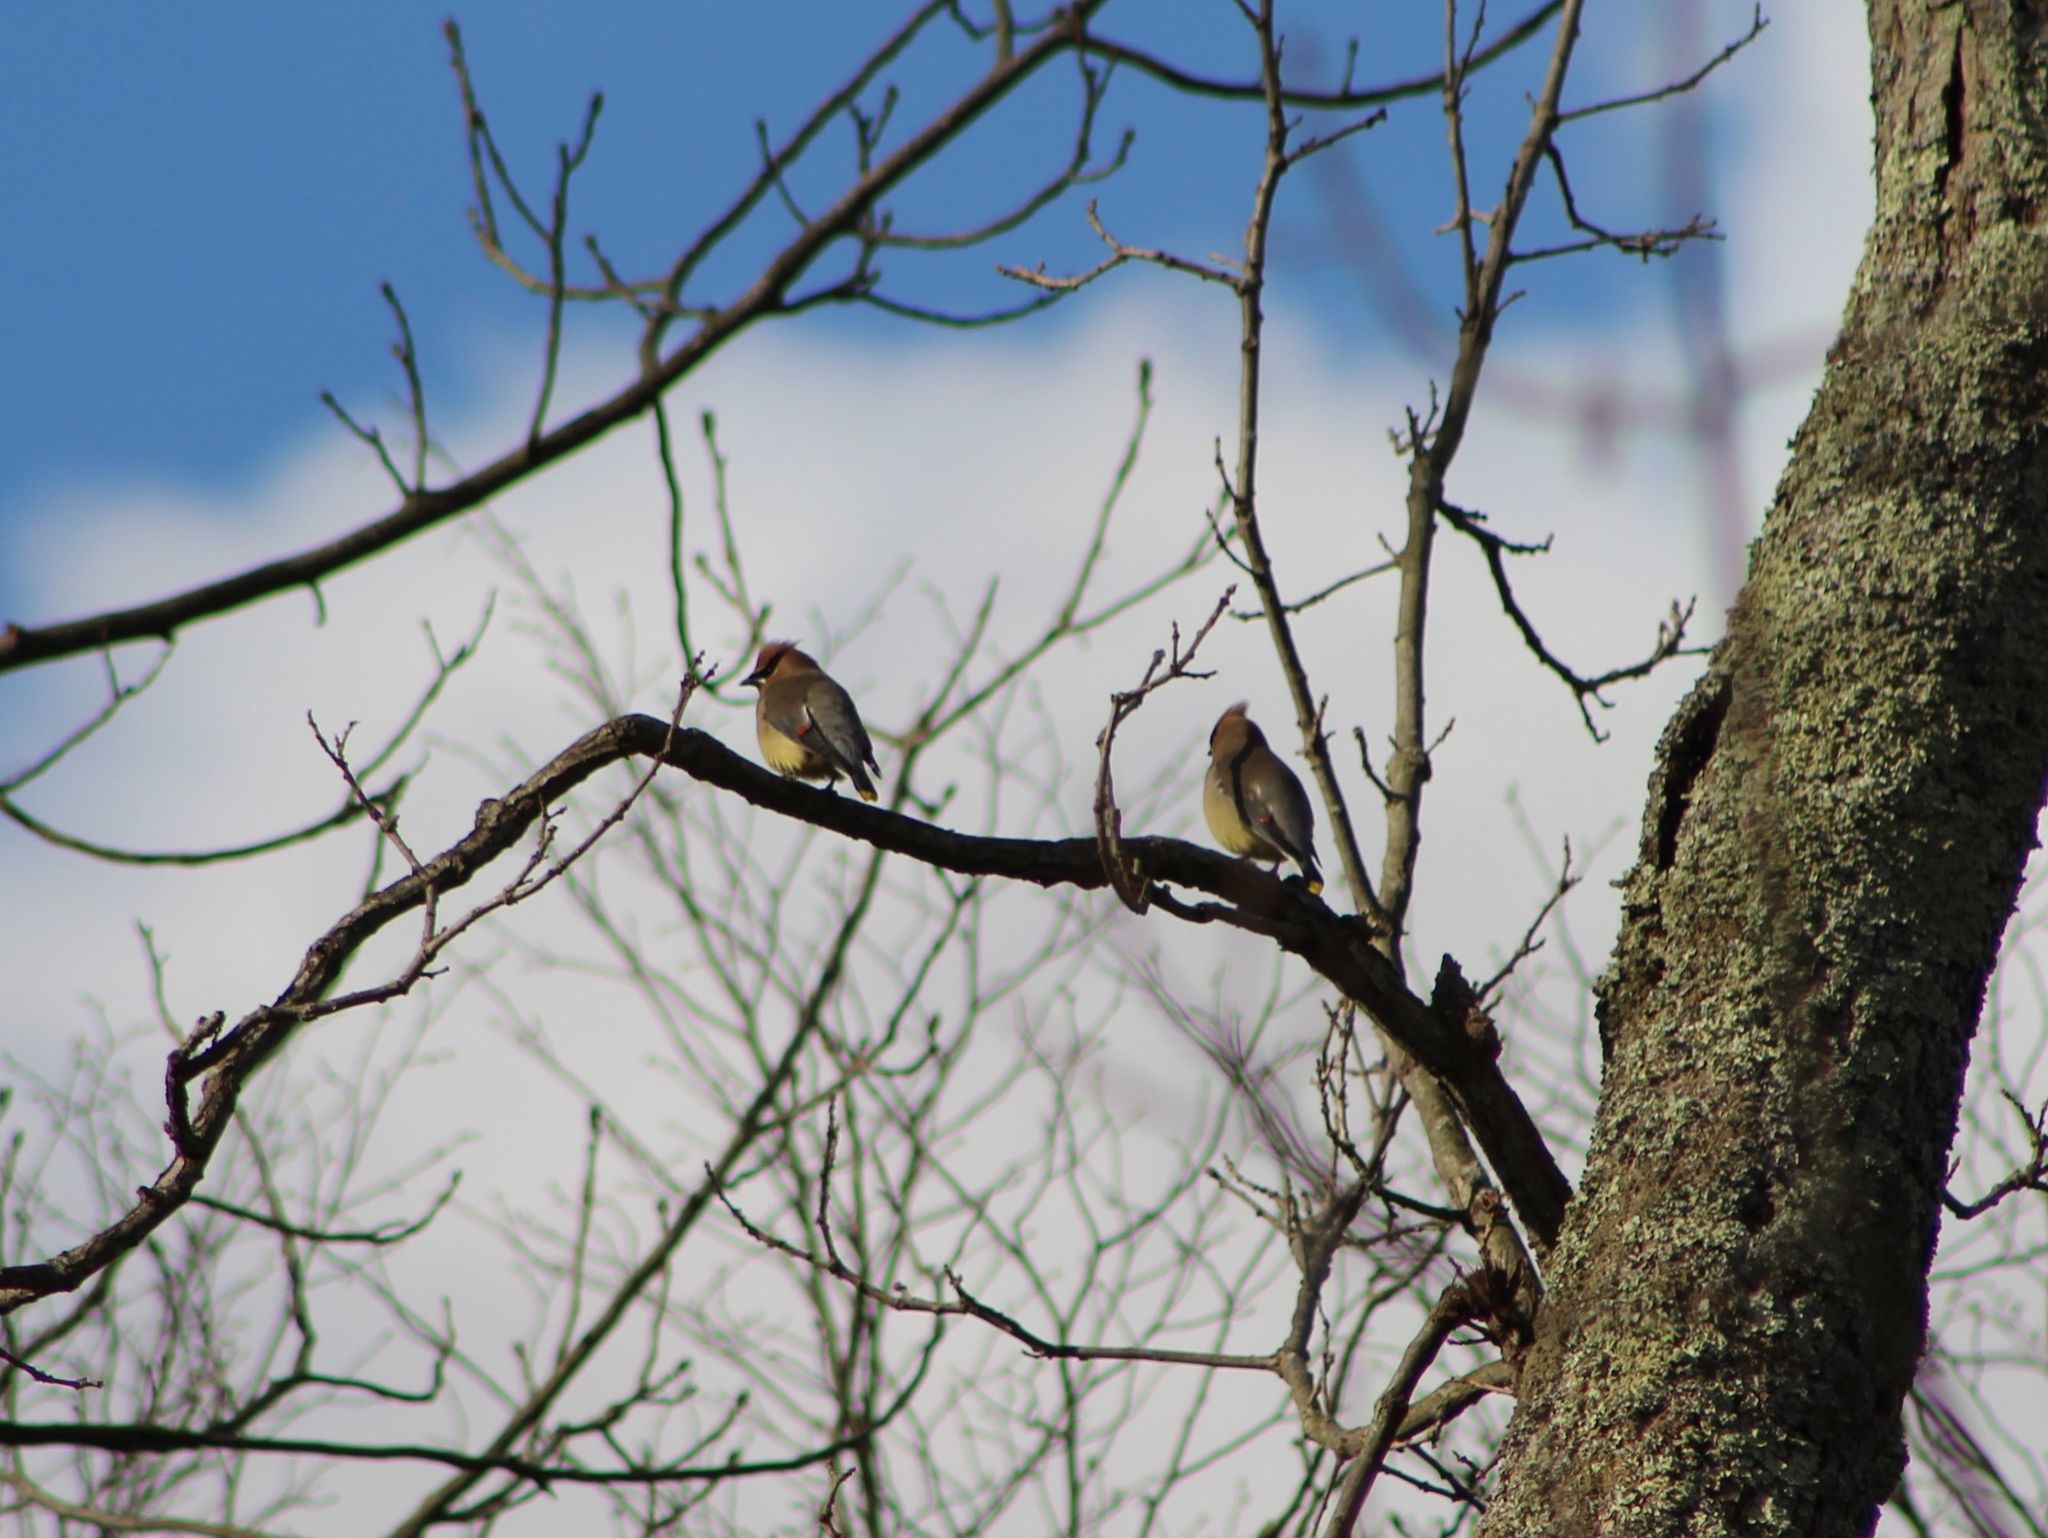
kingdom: Animalia
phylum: Chordata
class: Aves
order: Passeriformes
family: Bombycillidae
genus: Bombycilla
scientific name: Bombycilla cedrorum
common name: Cedar waxwing
